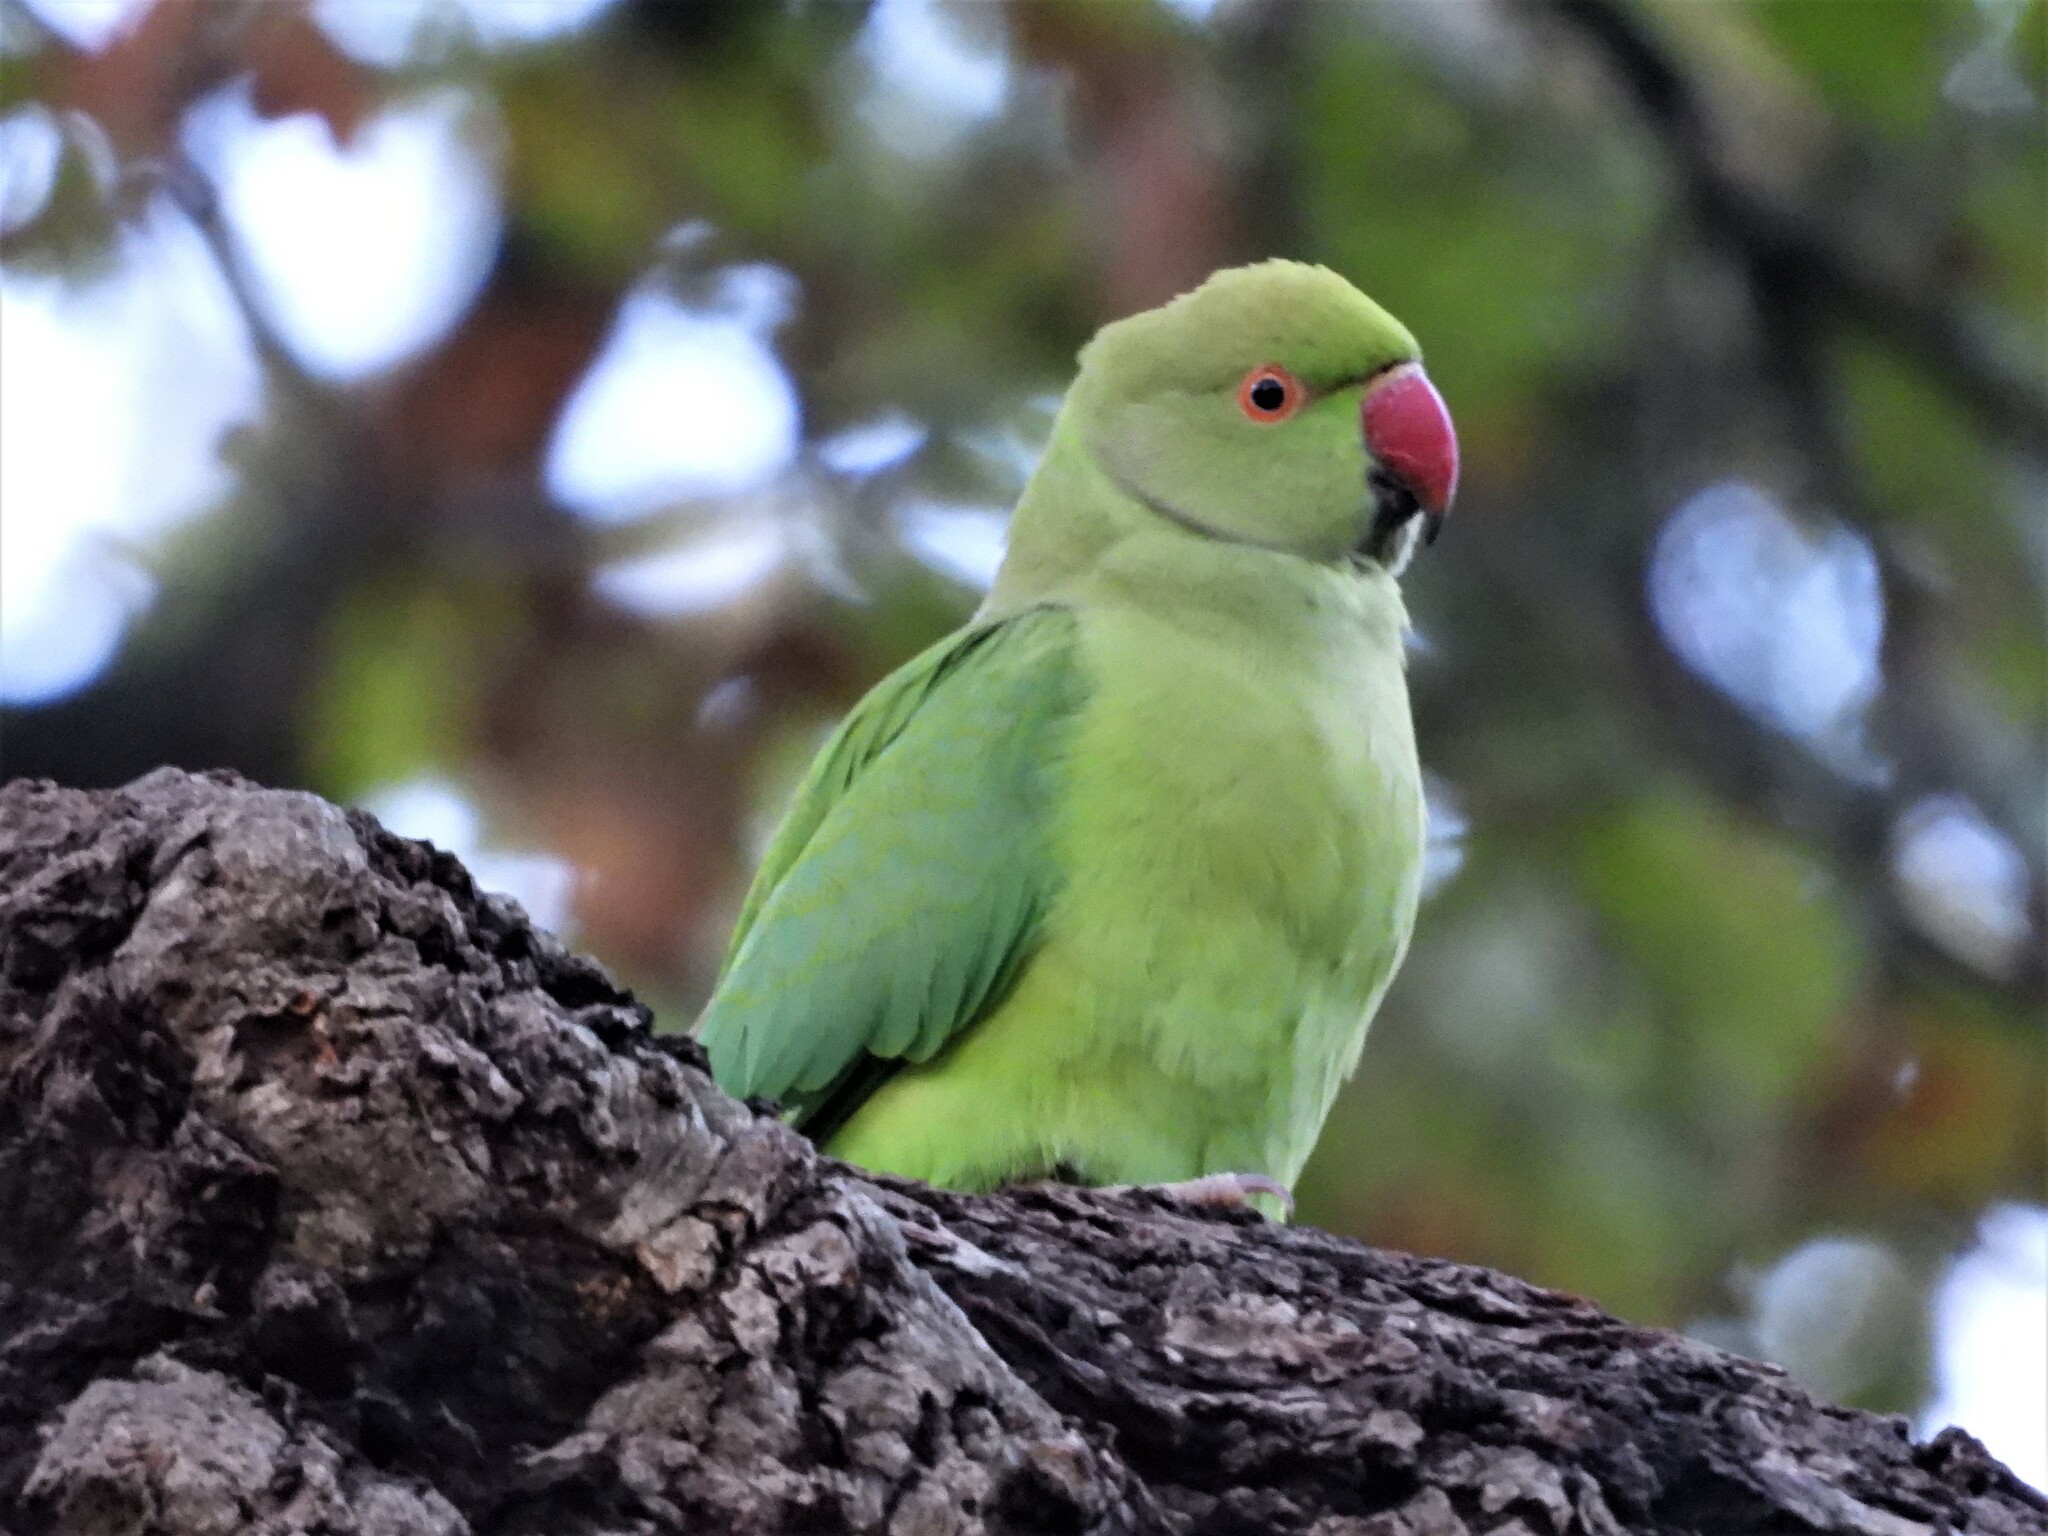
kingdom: Animalia
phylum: Chordata
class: Aves
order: Psittaciformes
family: Psittacidae
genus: Psittacula
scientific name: Psittacula krameri
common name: Rose-ringed parakeet
